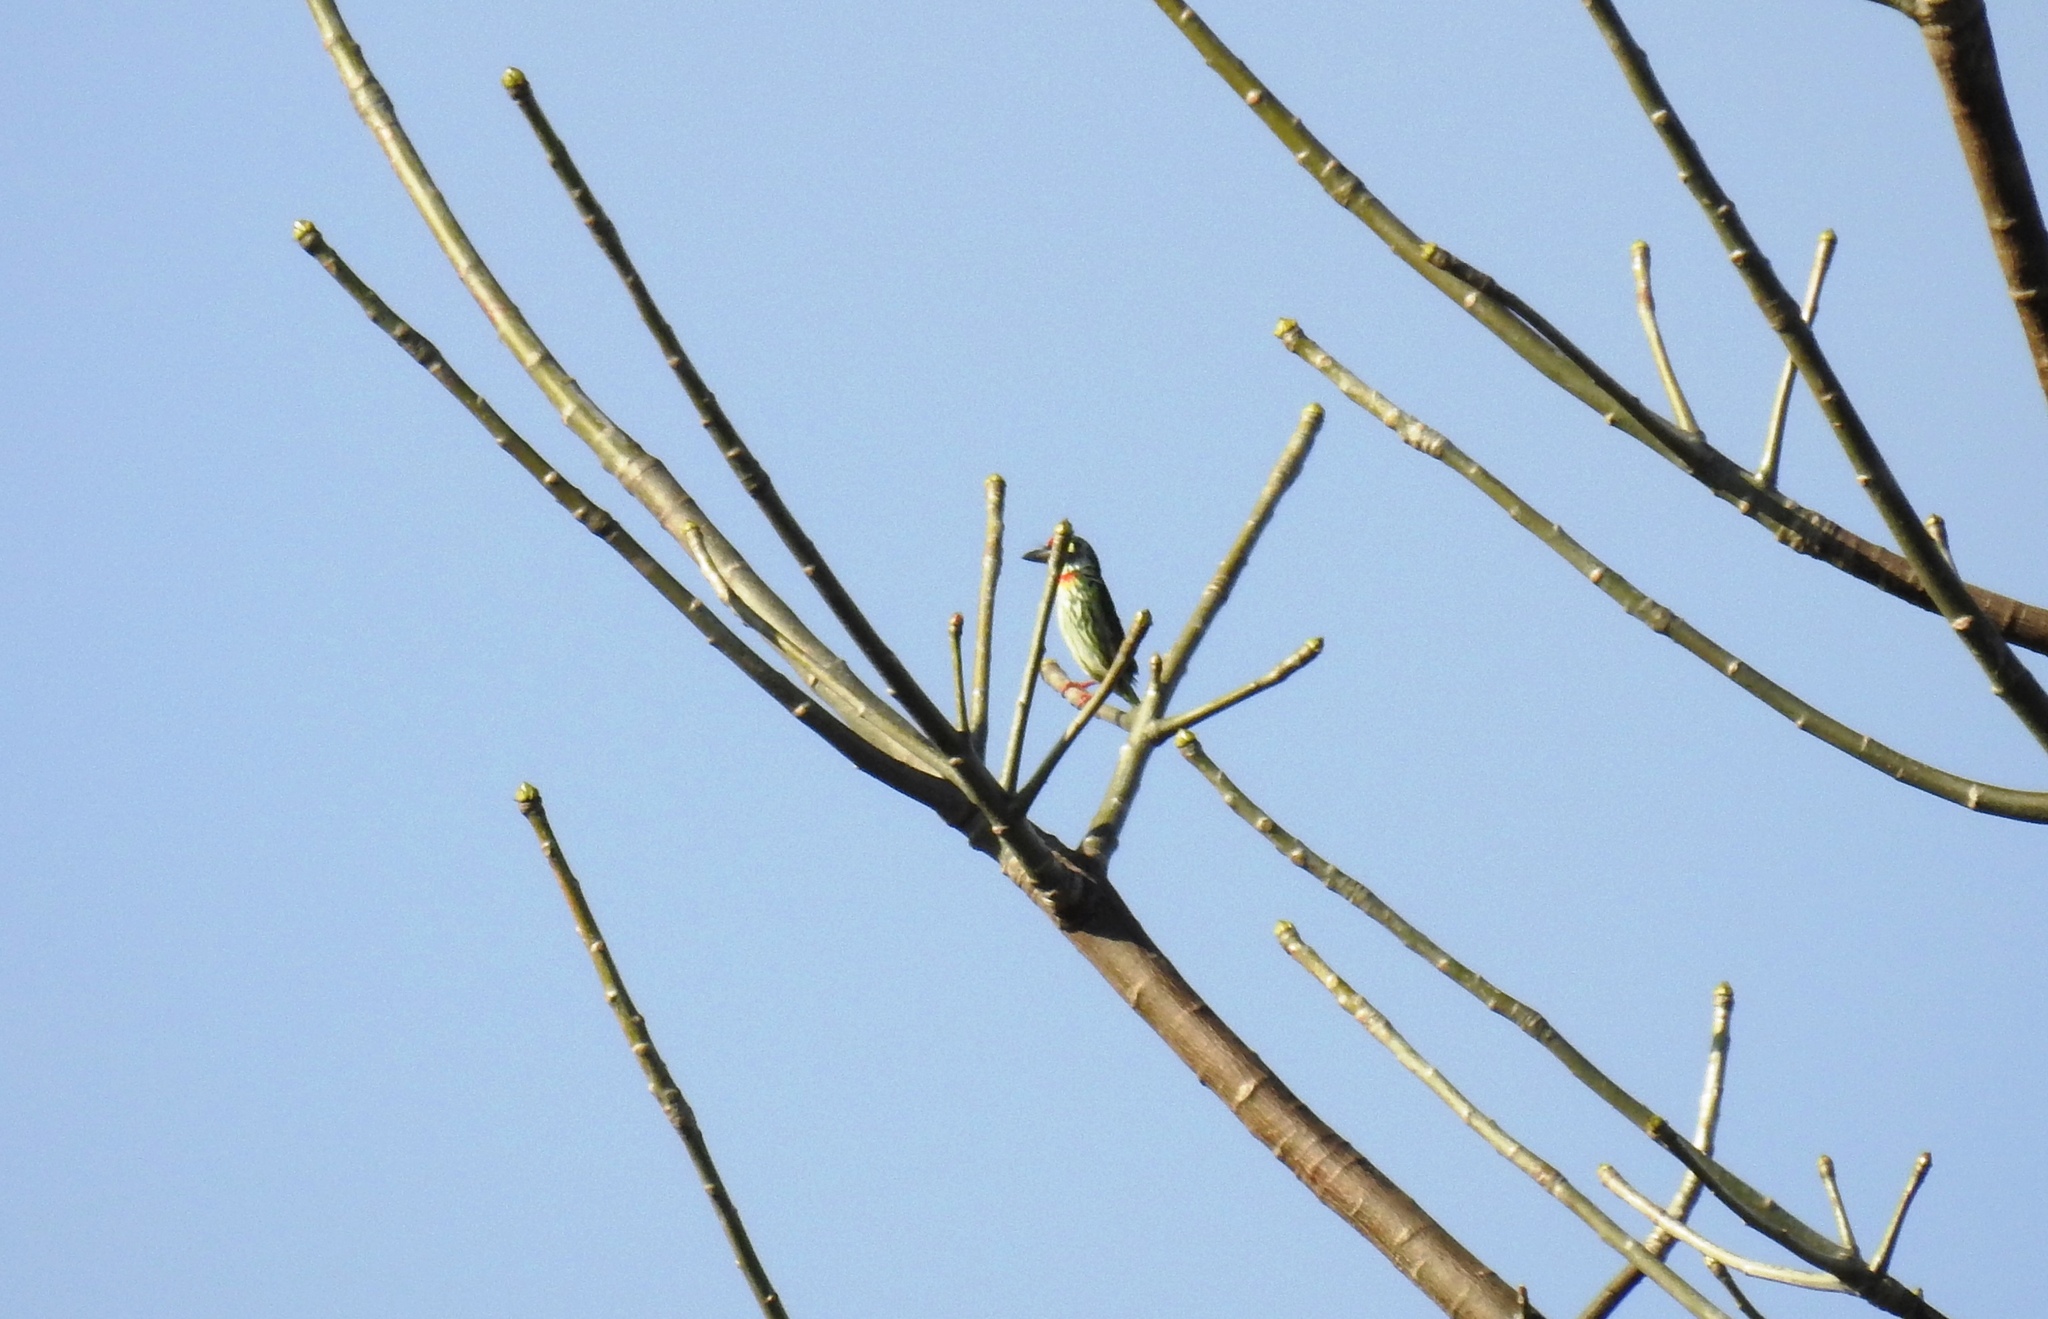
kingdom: Animalia
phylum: Chordata
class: Aves
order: Piciformes
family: Megalaimidae
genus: Psilopogon
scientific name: Psilopogon haemacephalus
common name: Coppersmith barbet
